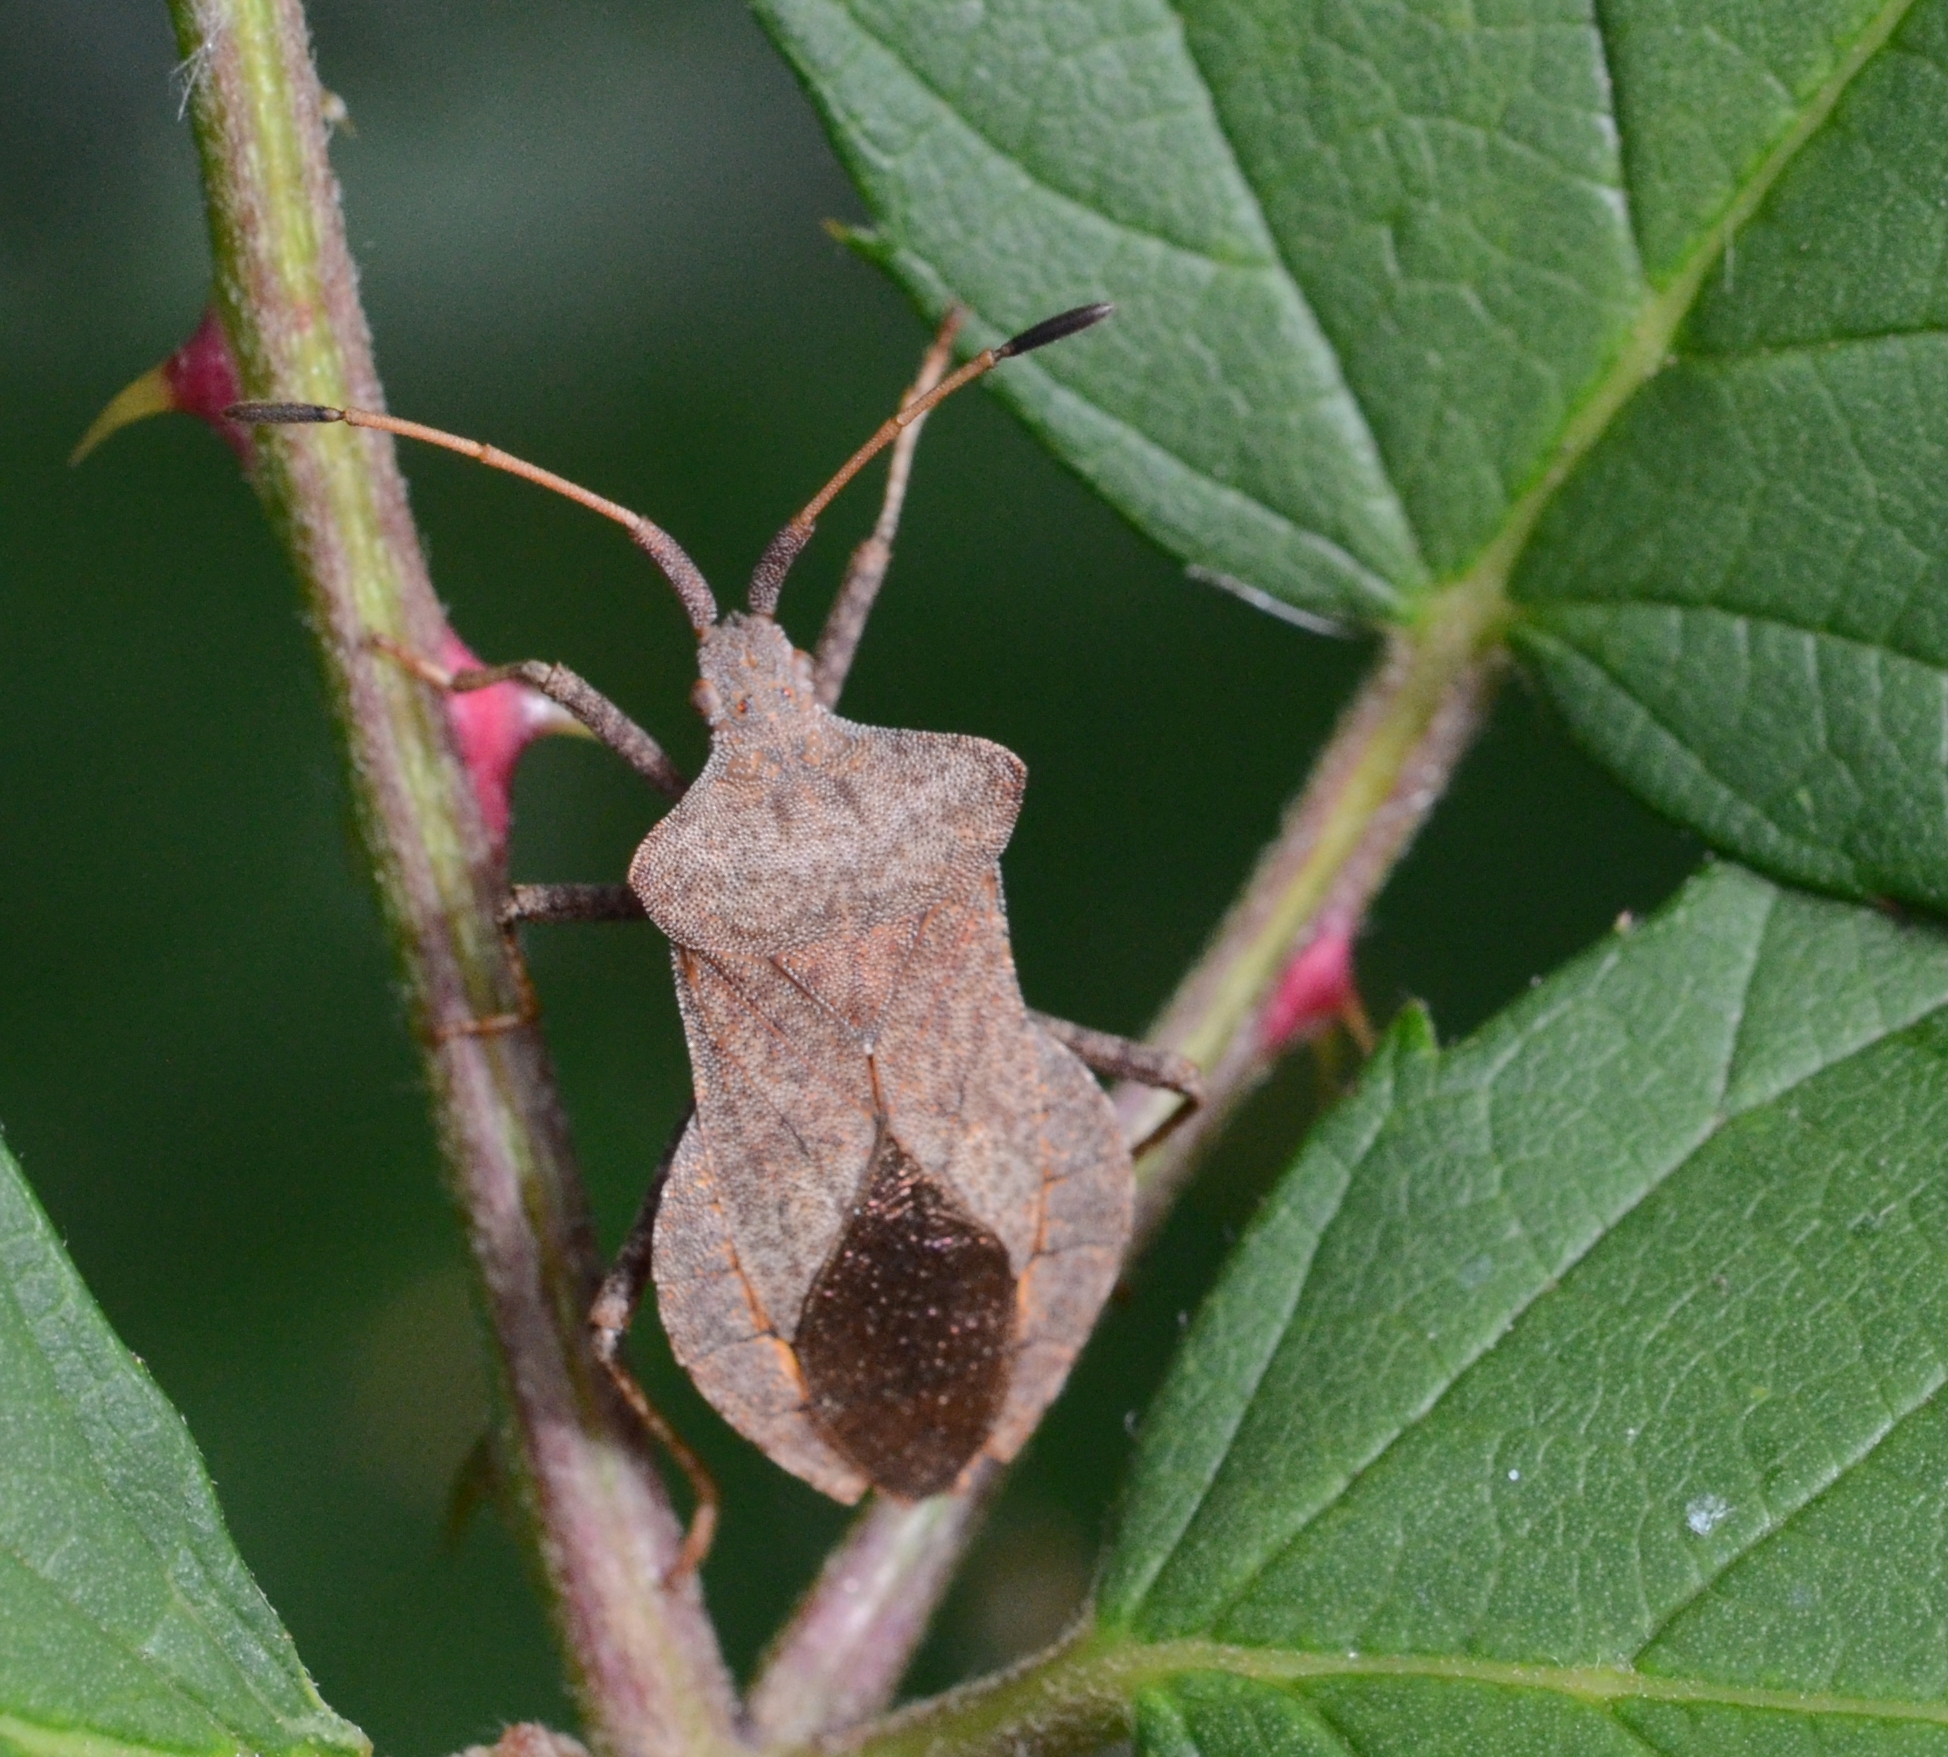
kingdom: Animalia
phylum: Arthropoda
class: Insecta
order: Hemiptera
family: Coreidae
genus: Coreus
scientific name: Coreus marginatus
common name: Dock bug
